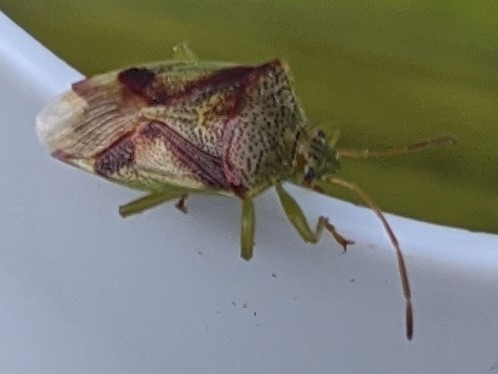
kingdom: Animalia
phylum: Arthropoda
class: Insecta
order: Hemiptera
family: Acanthosomatidae
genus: Elasmostethus
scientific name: Elasmostethus cruciatus
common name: Red-cross shield bug
